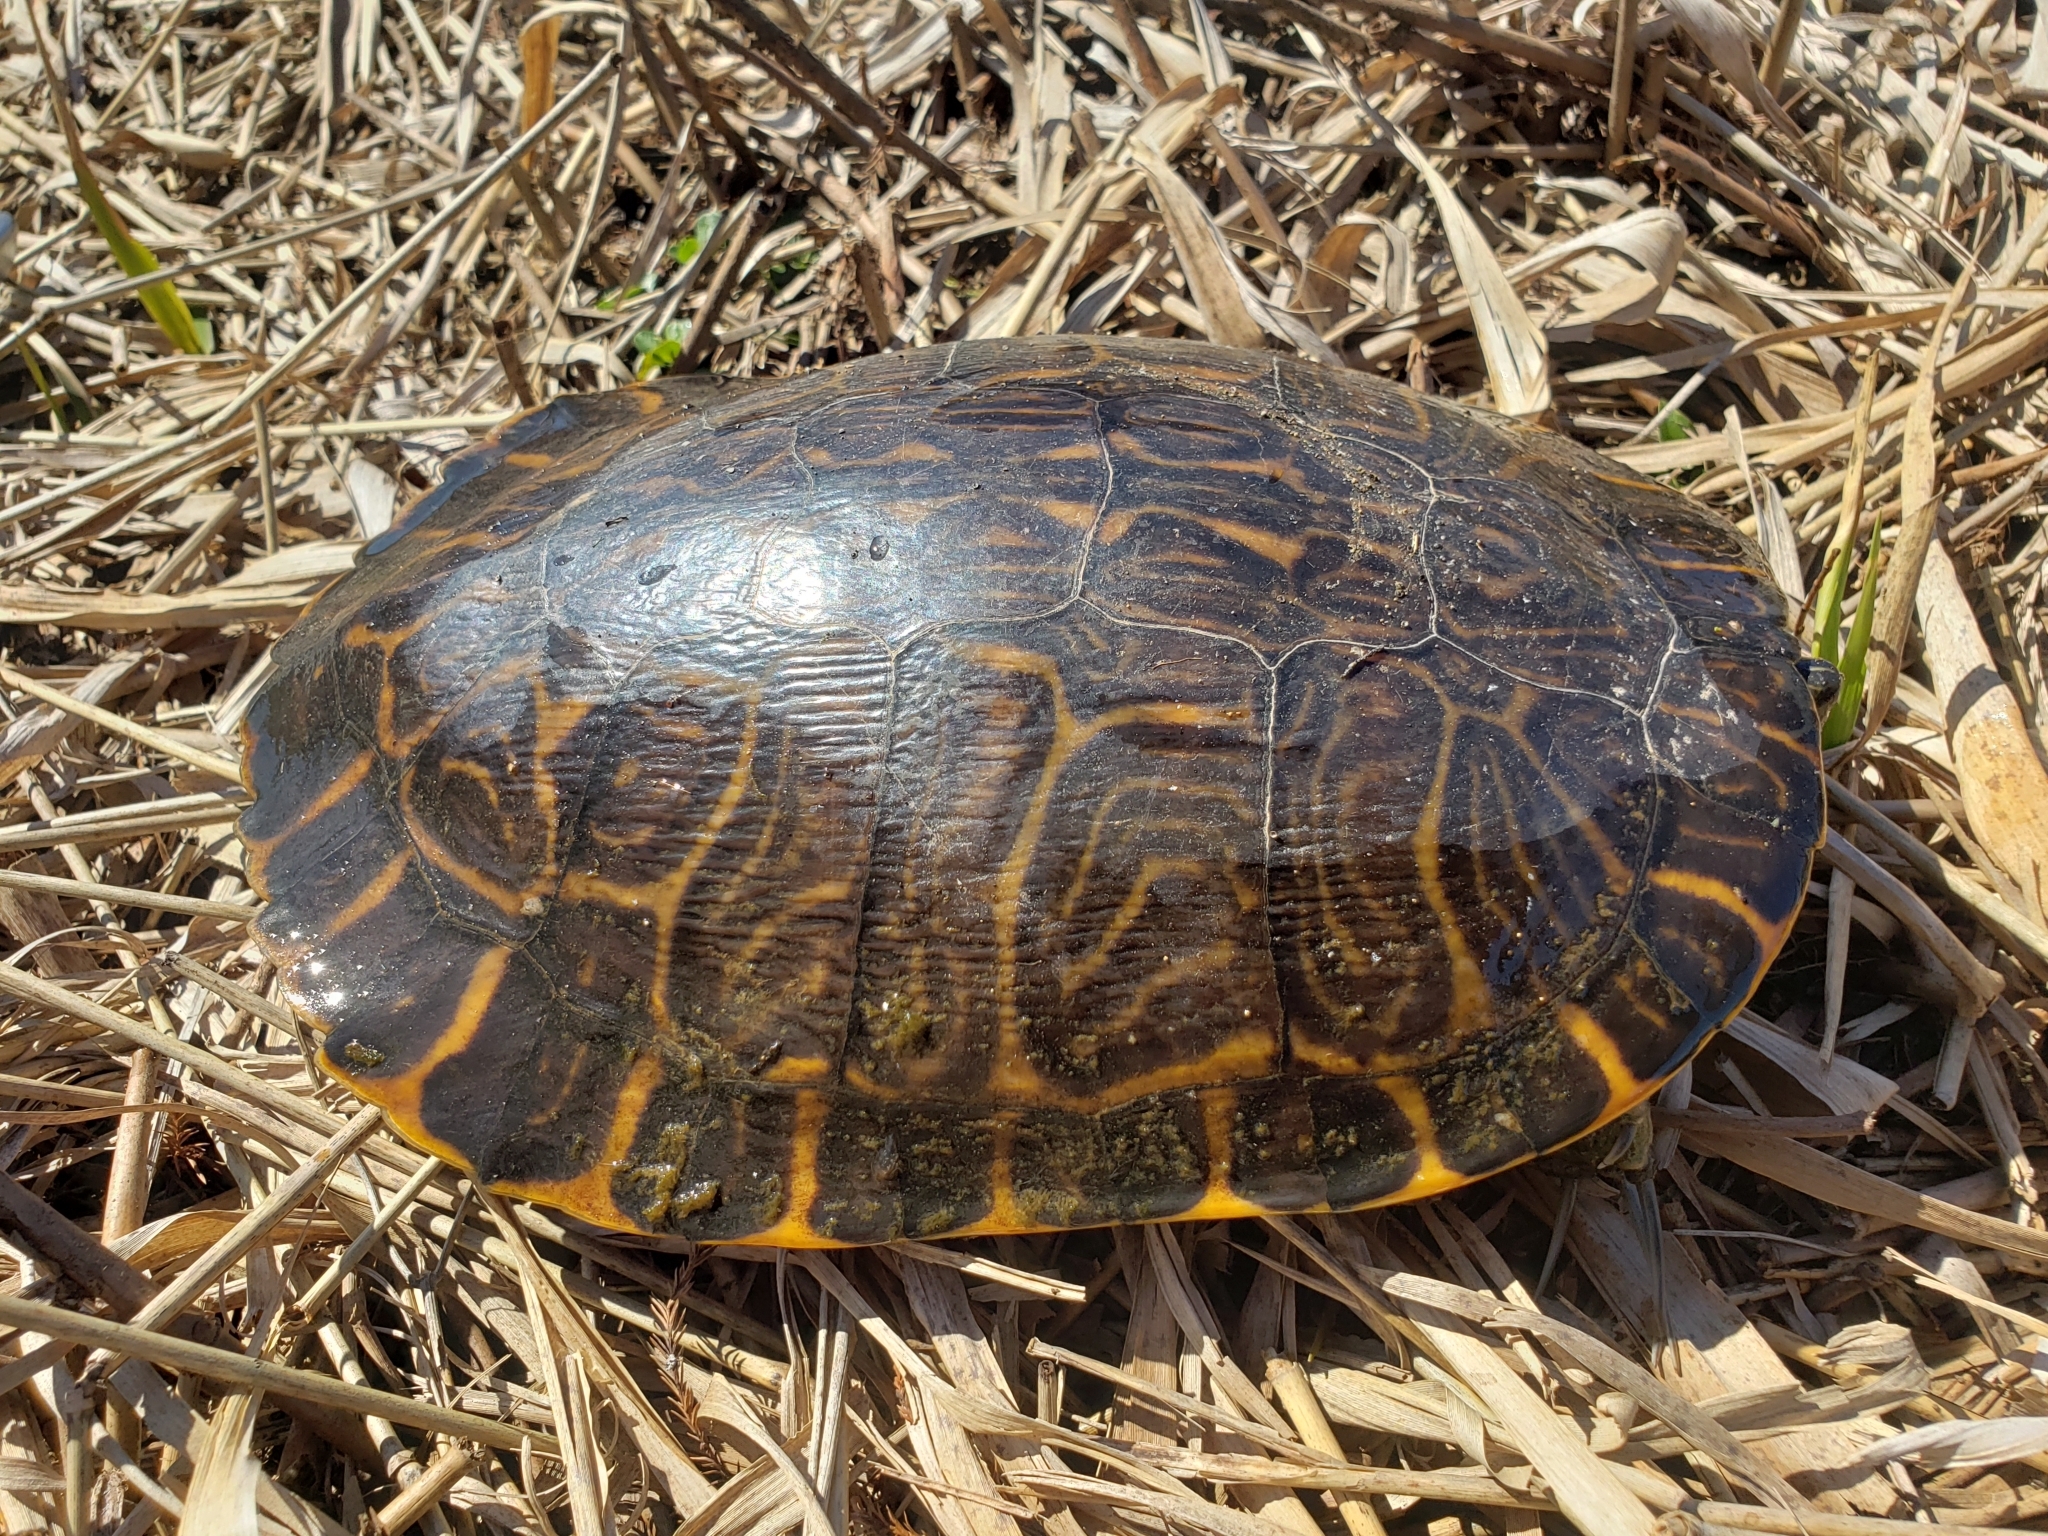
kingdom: Animalia
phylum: Chordata
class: Testudines
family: Emydidae
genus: Pseudemys
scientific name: Pseudemys concinna
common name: Eastern river cooter
